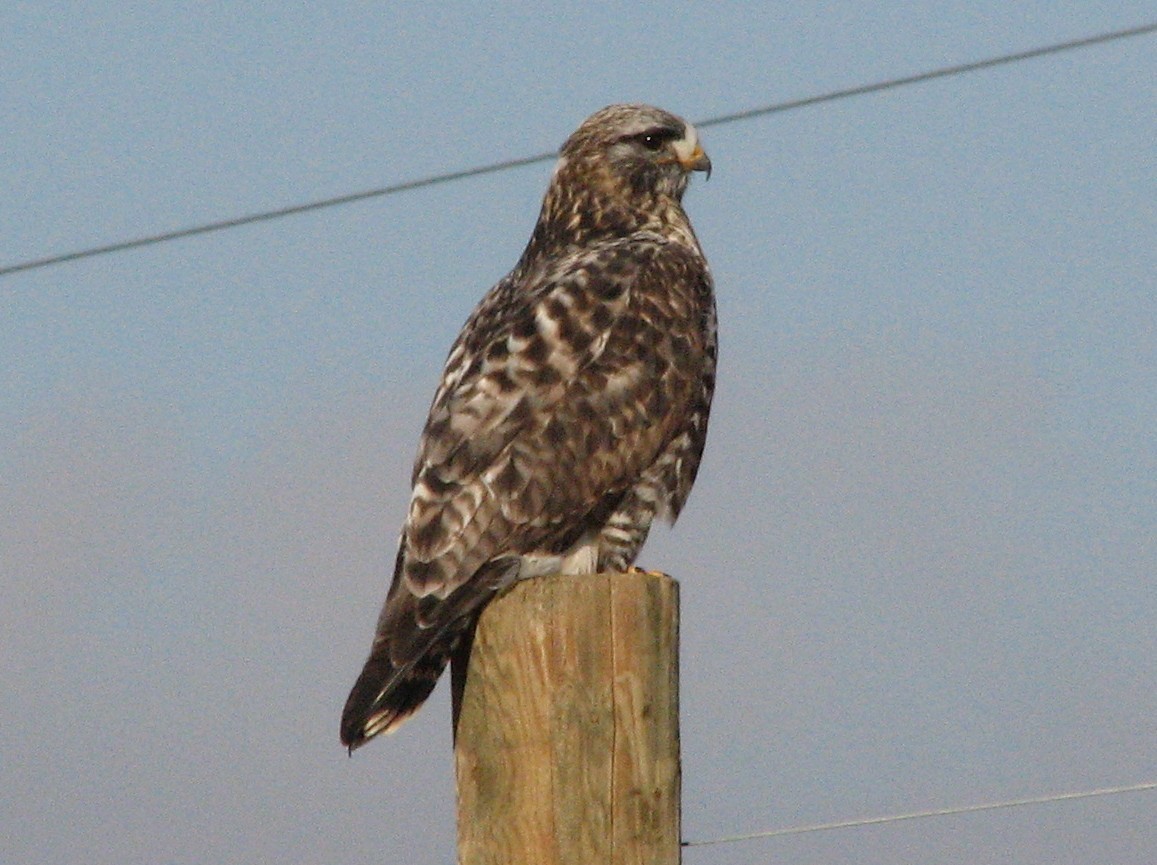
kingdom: Animalia
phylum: Chordata
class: Aves
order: Accipitriformes
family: Accipitridae
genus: Buteo
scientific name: Buteo lagopus
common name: Rough-legged buzzard
